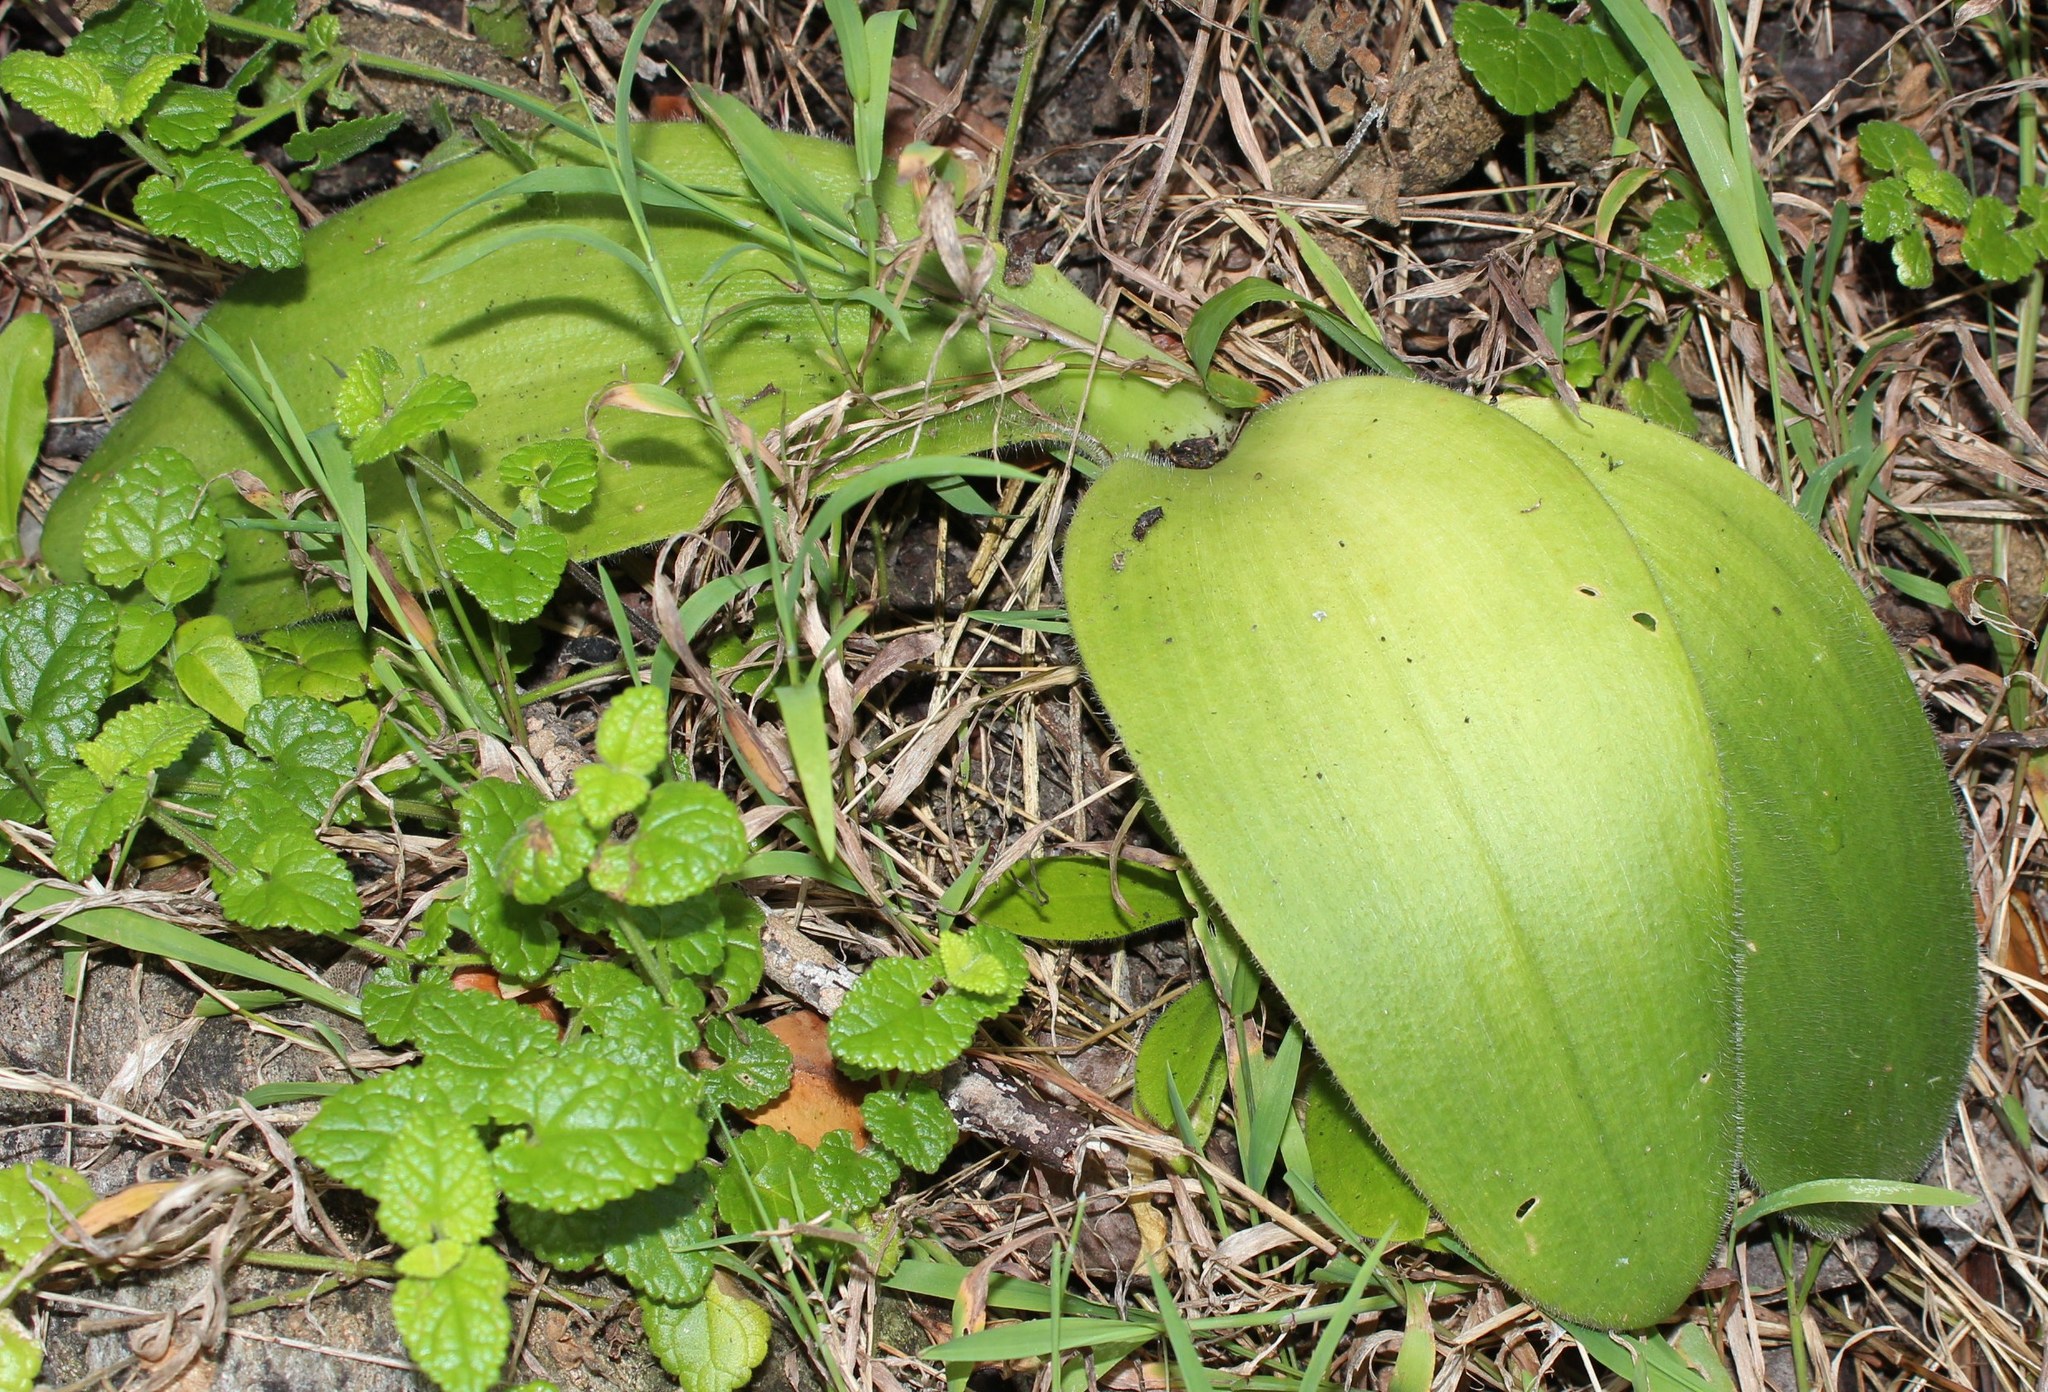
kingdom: Plantae
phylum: Tracheophyta
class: Liliopsida
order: Asparagales
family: Amaryllidaceae
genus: Haemanthus
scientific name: Haemanthus albiflos
